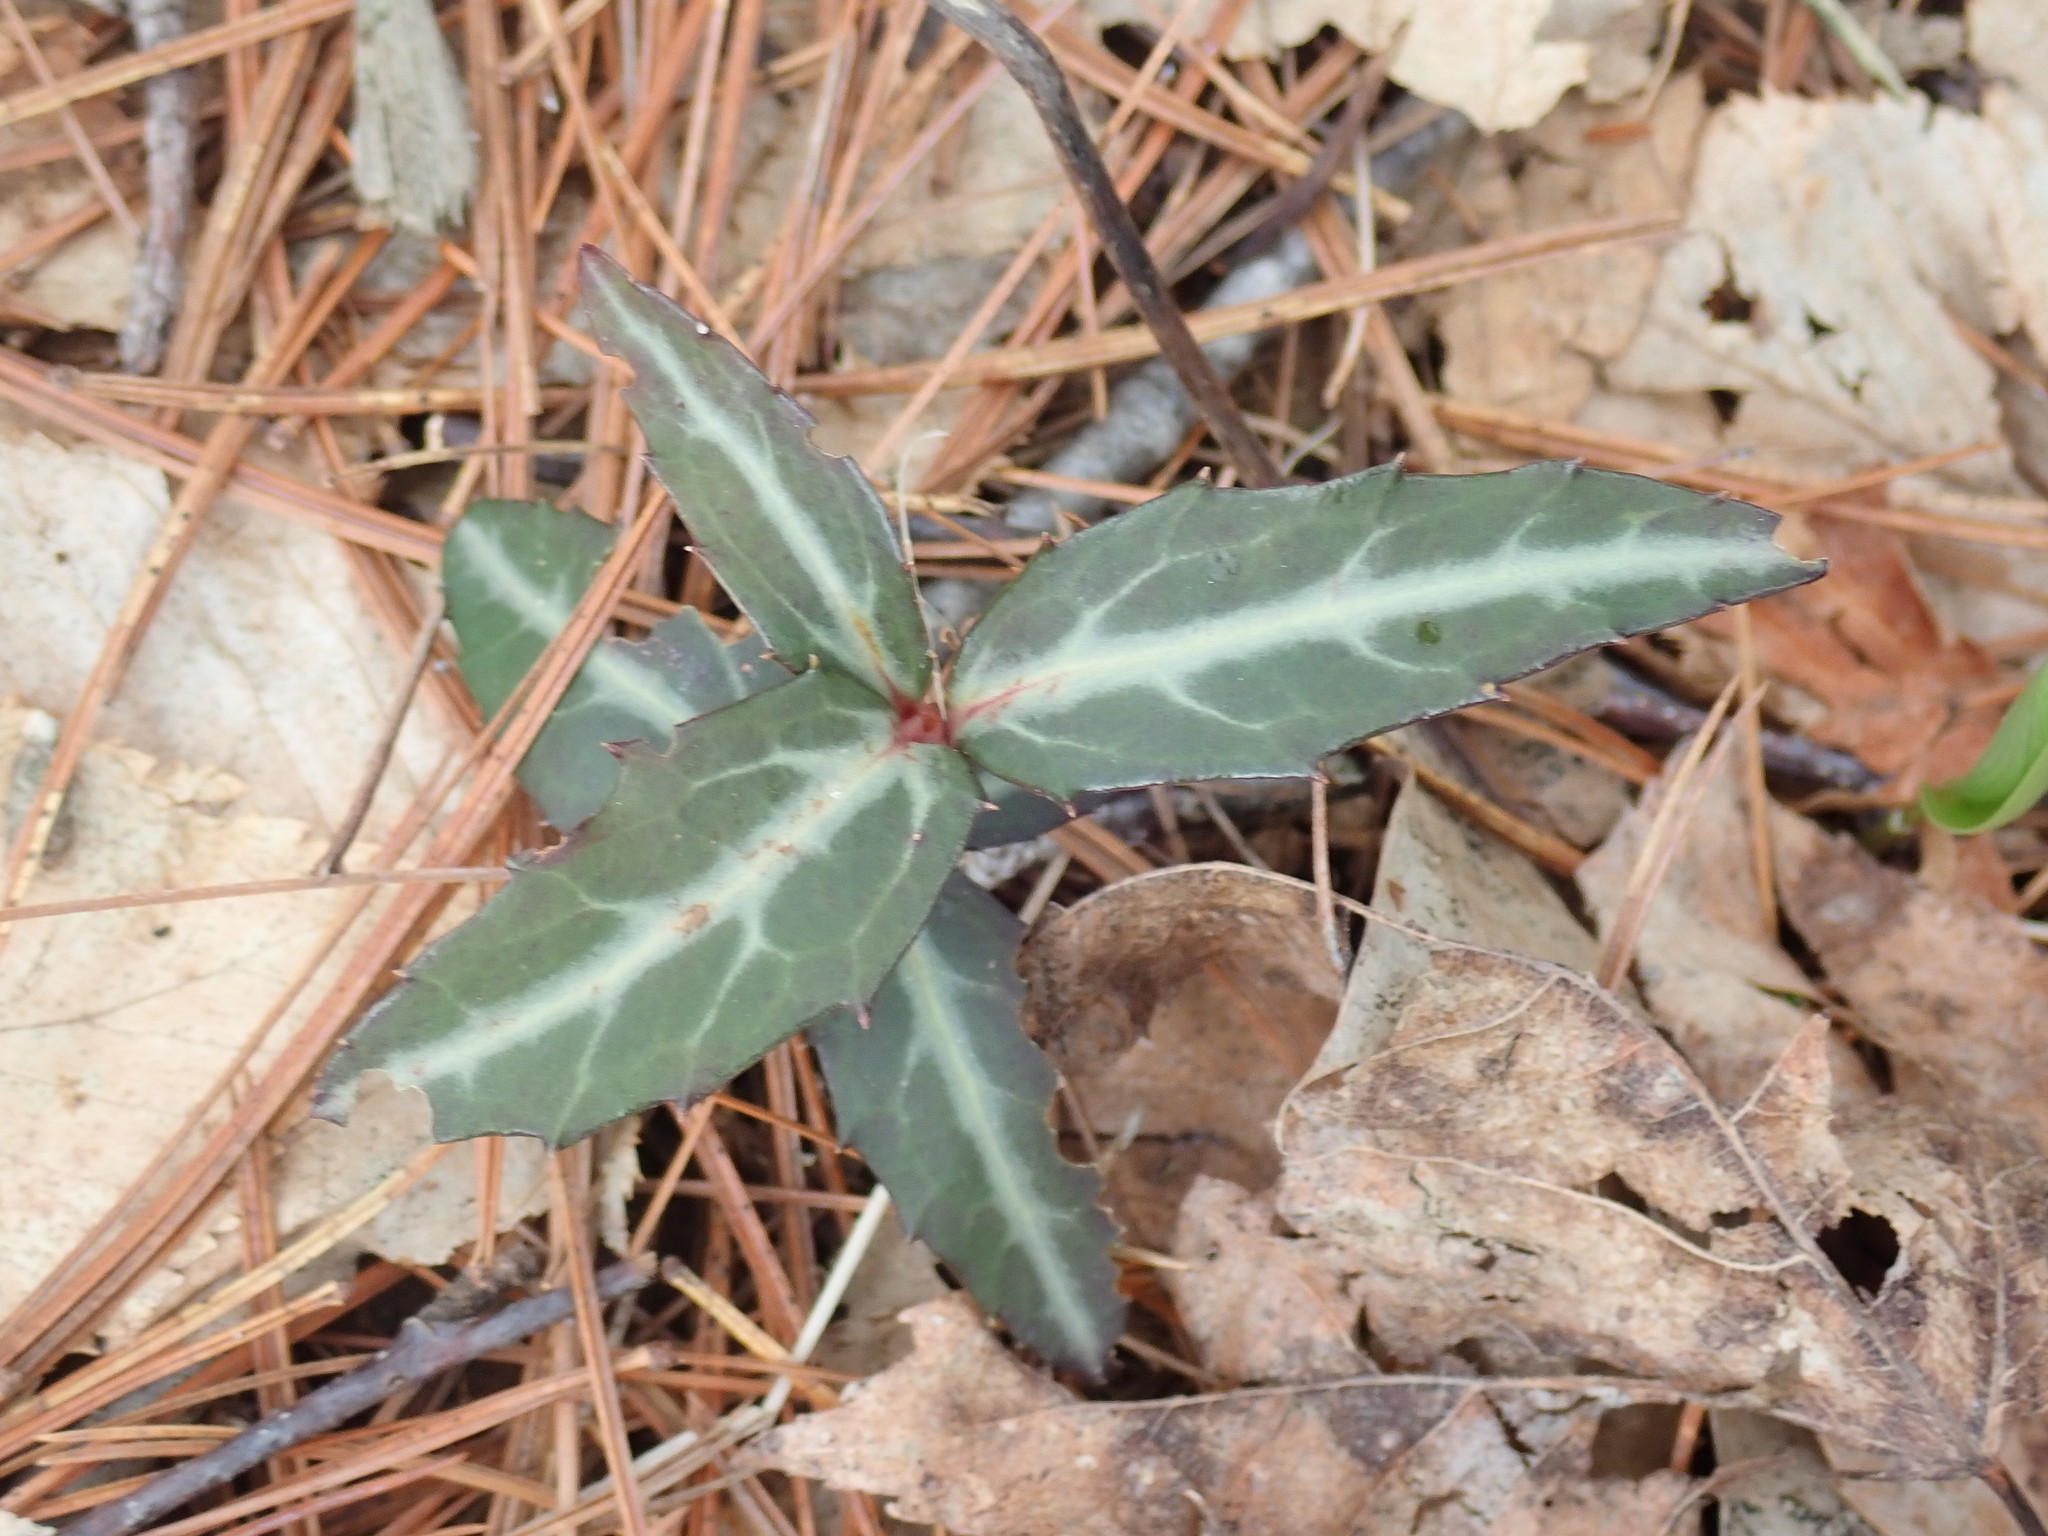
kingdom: Plantae
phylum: Tracheophyta
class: Magnoliopsida
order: Ericales
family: Ericaceae
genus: Chimaphila
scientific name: Chimaphila maculata
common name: Spotted pipsissewa
